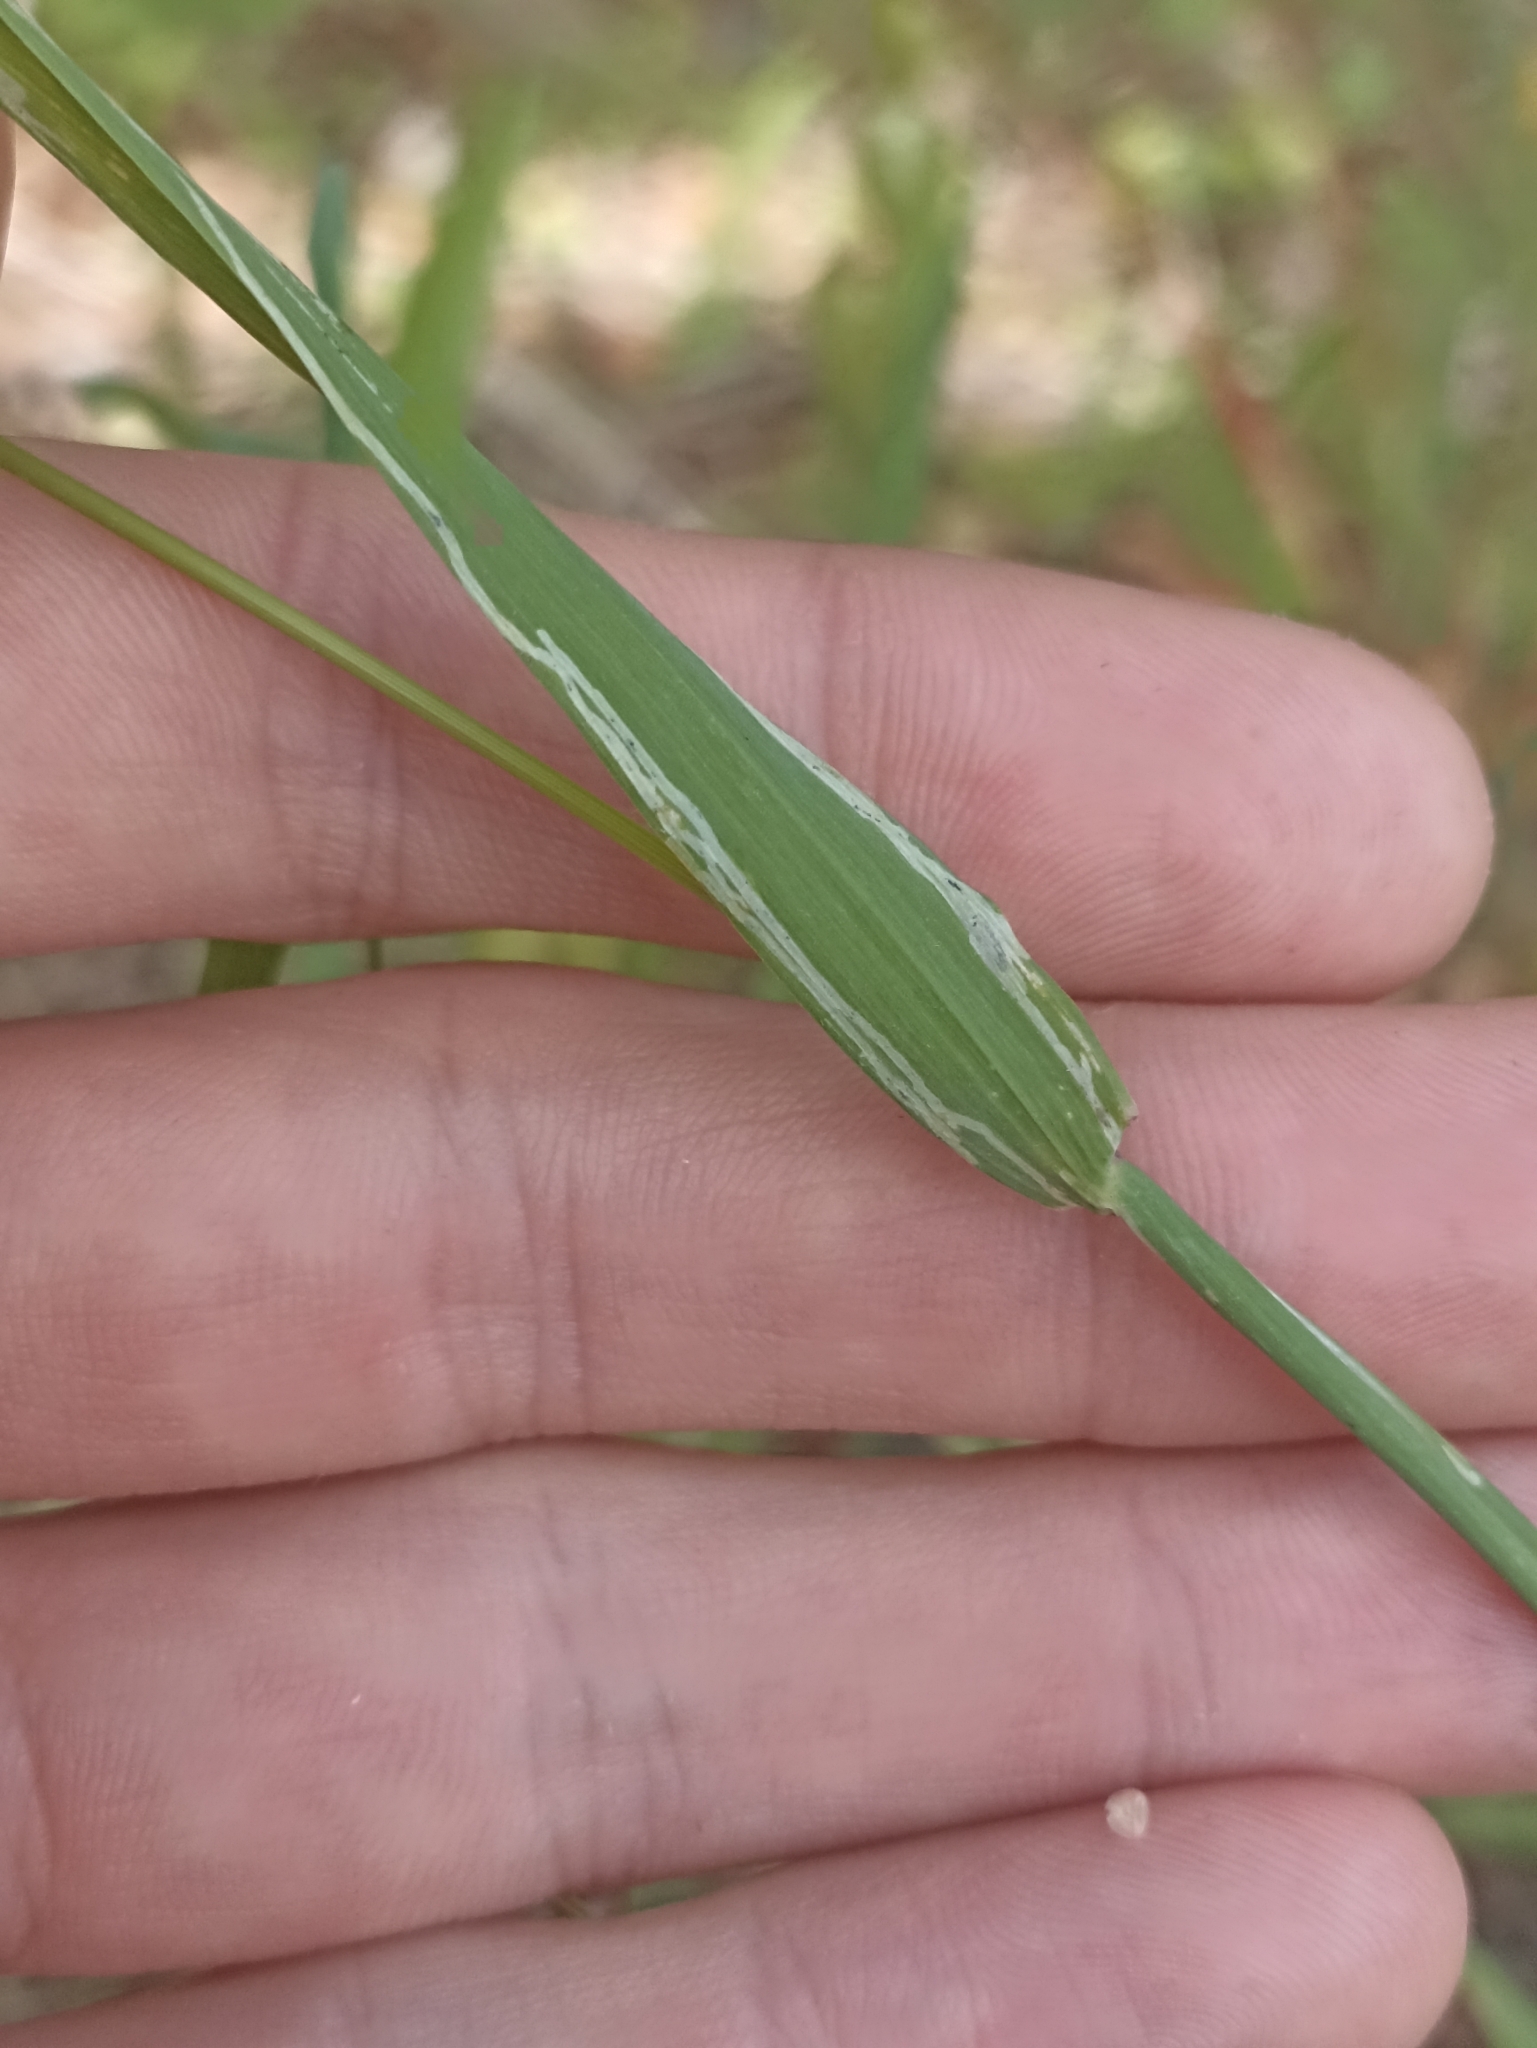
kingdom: Plantae
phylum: Tracheophyta
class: Liliopsida
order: Poales
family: Poaceae
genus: Briza
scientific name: Briza maxima
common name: Big quakinggrass
